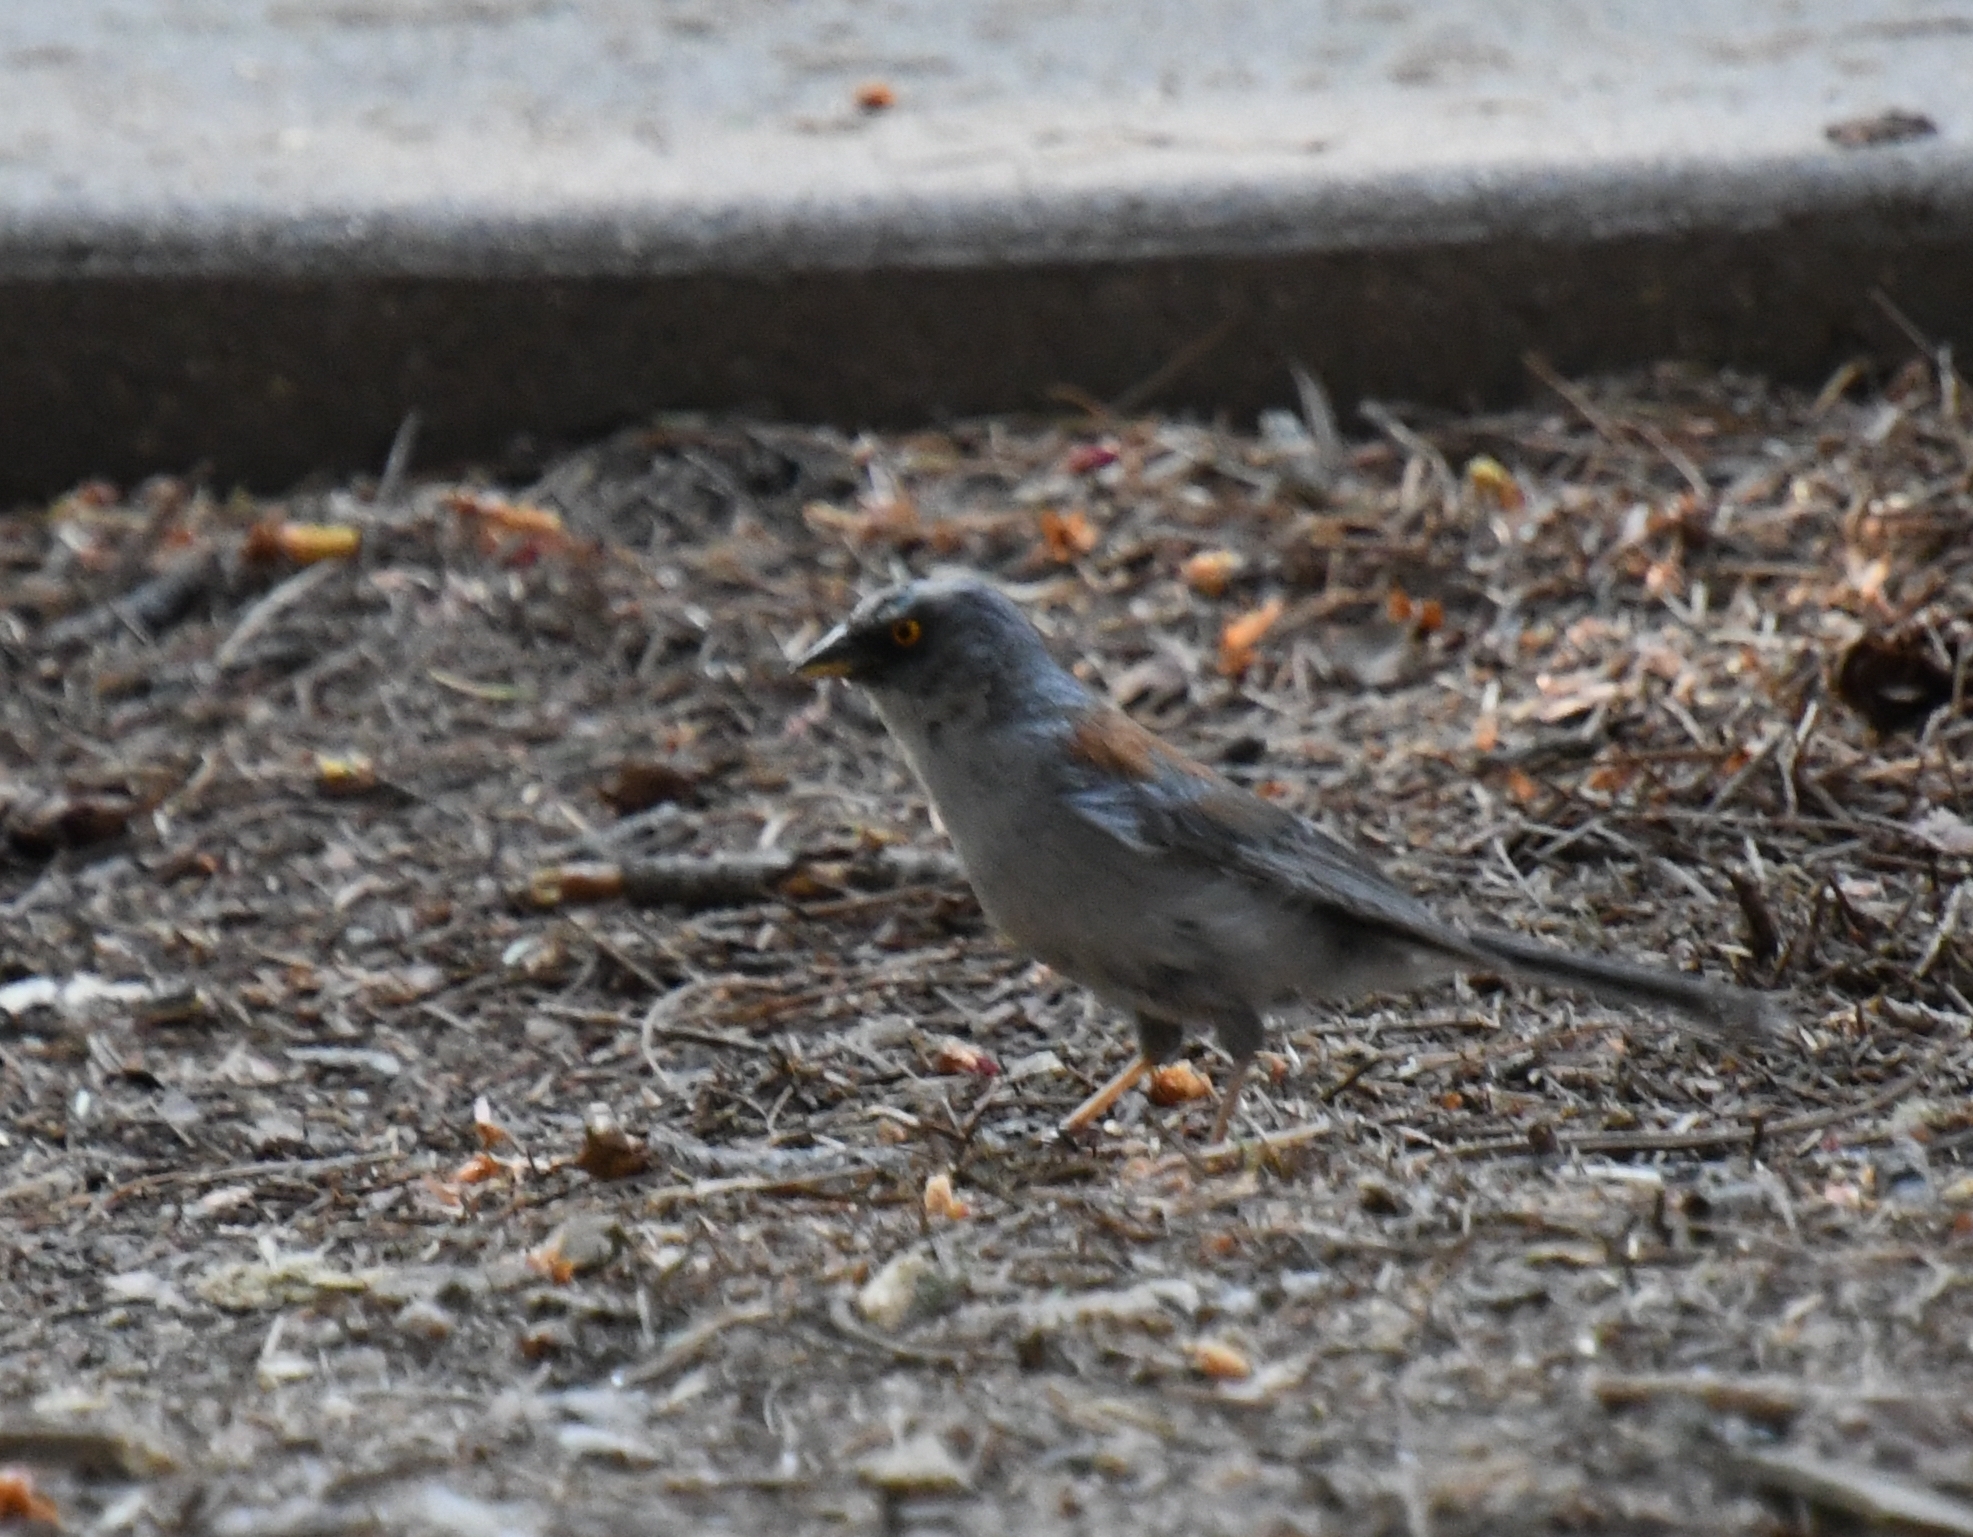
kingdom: Animalia
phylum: Chordata
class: Aves
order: Passeriformes
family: Passerellidae
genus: Junco
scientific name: Junco phaeonotus
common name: Yellow-eyed junco
